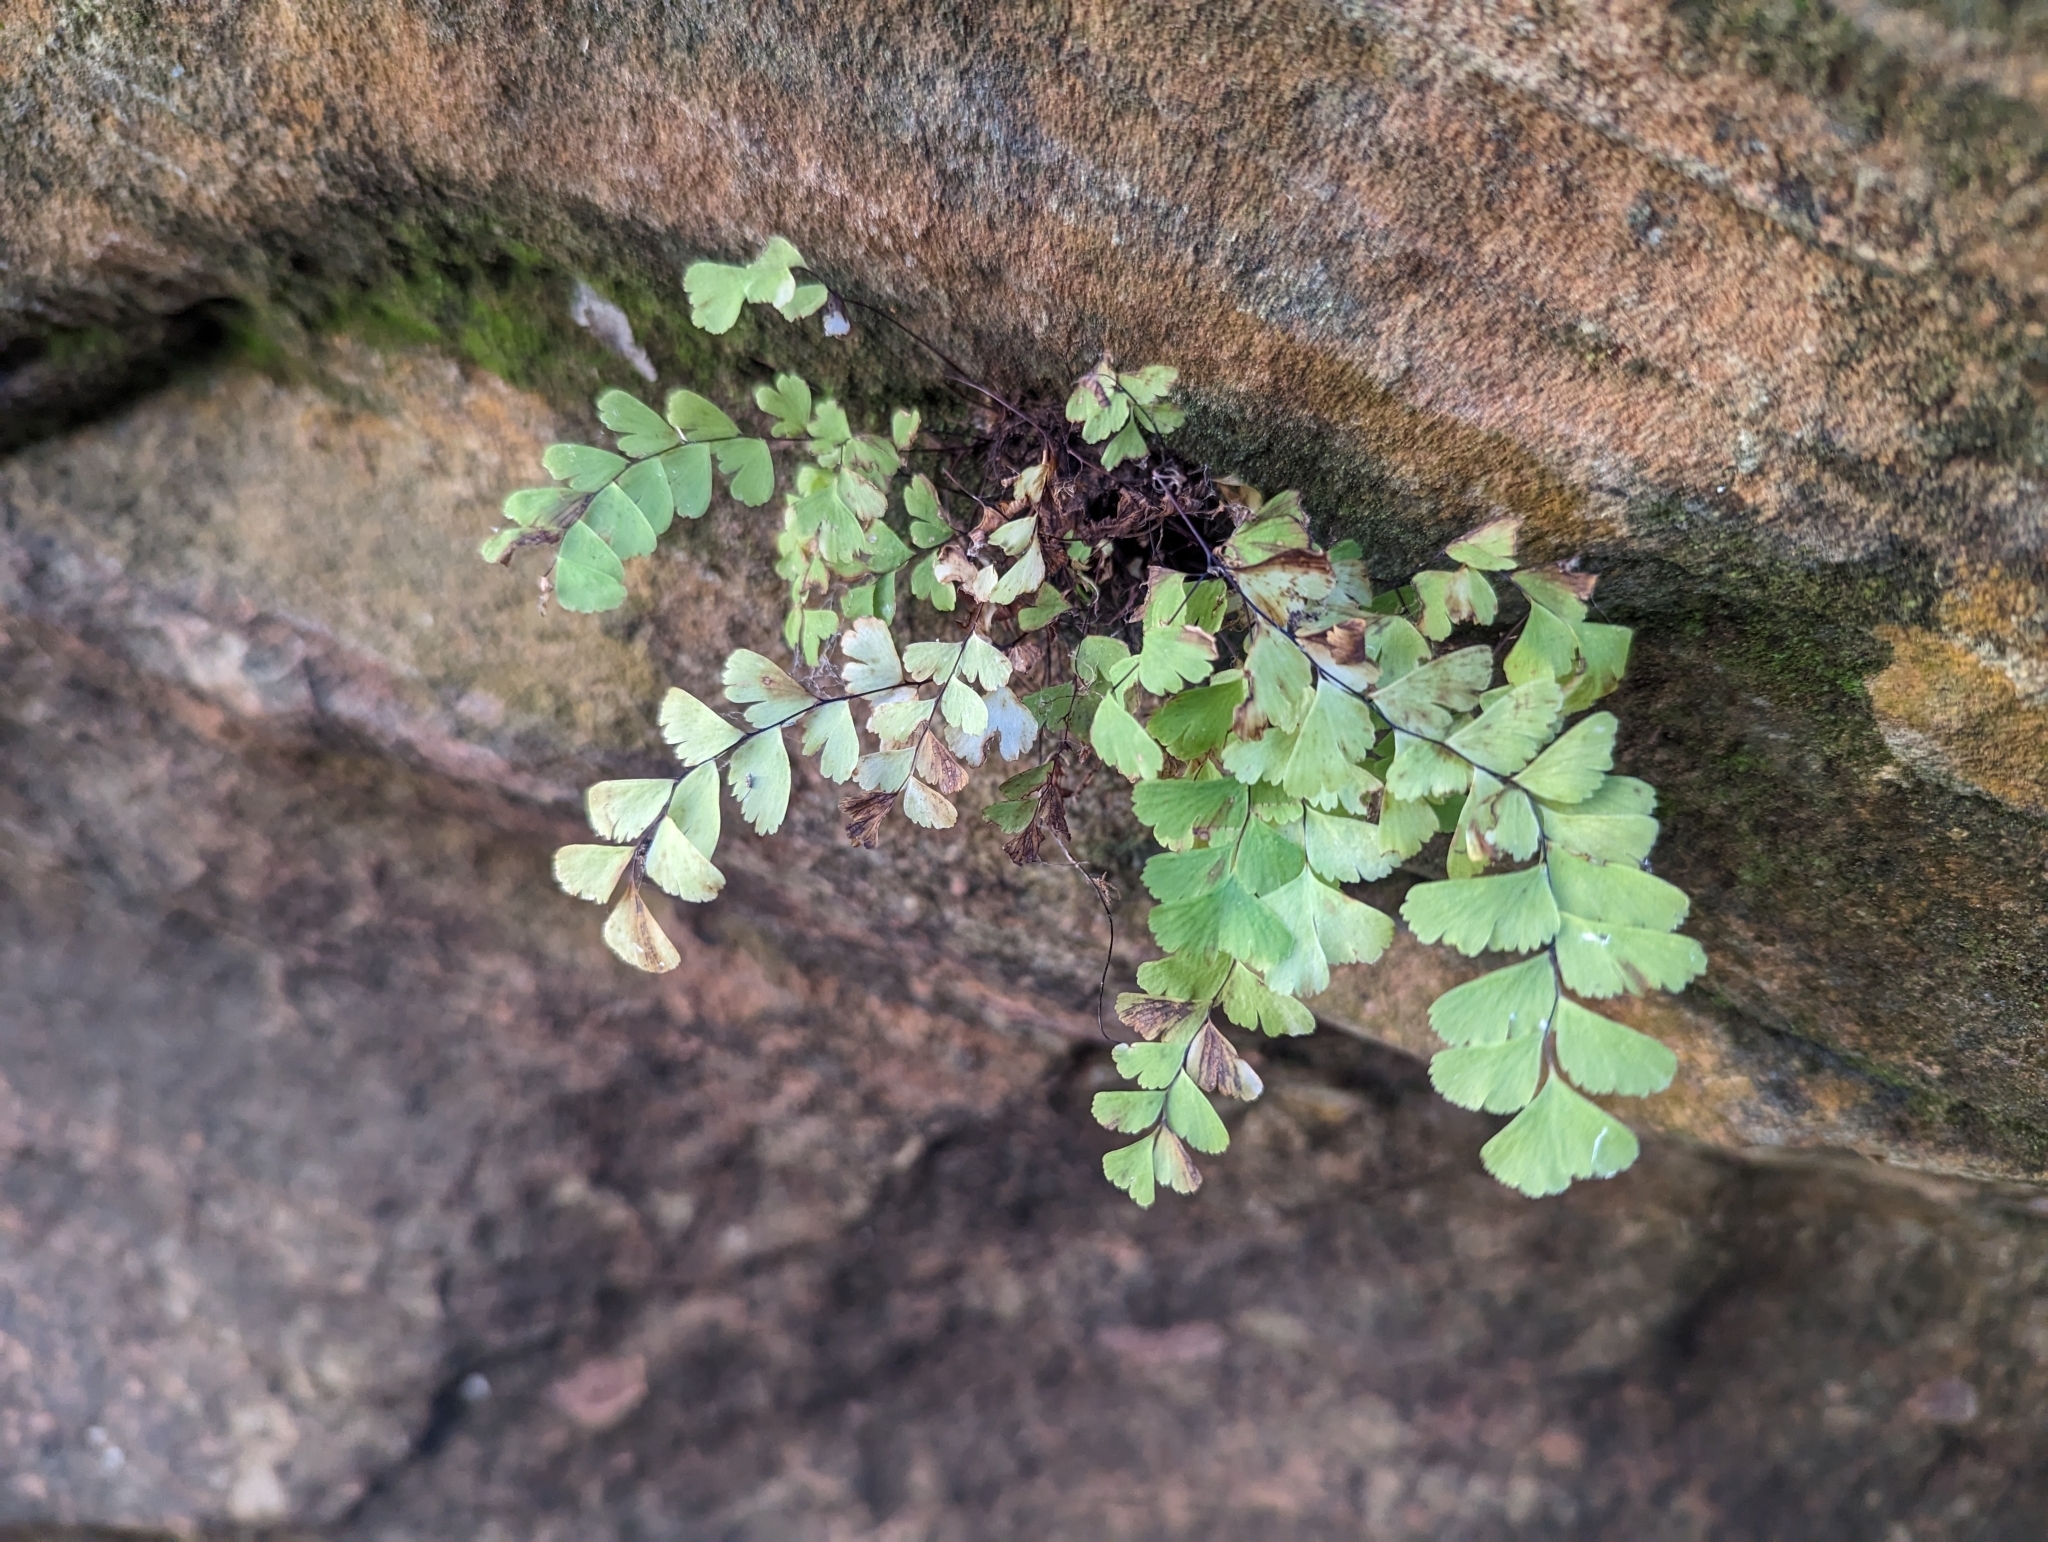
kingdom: Plantae
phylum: Tracheophyta
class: Polypodiopsida
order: Polypodiales
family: Pteridaceae
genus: Adiantum
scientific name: Adiantum aleuticum
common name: Aleutian maidenhair fern
